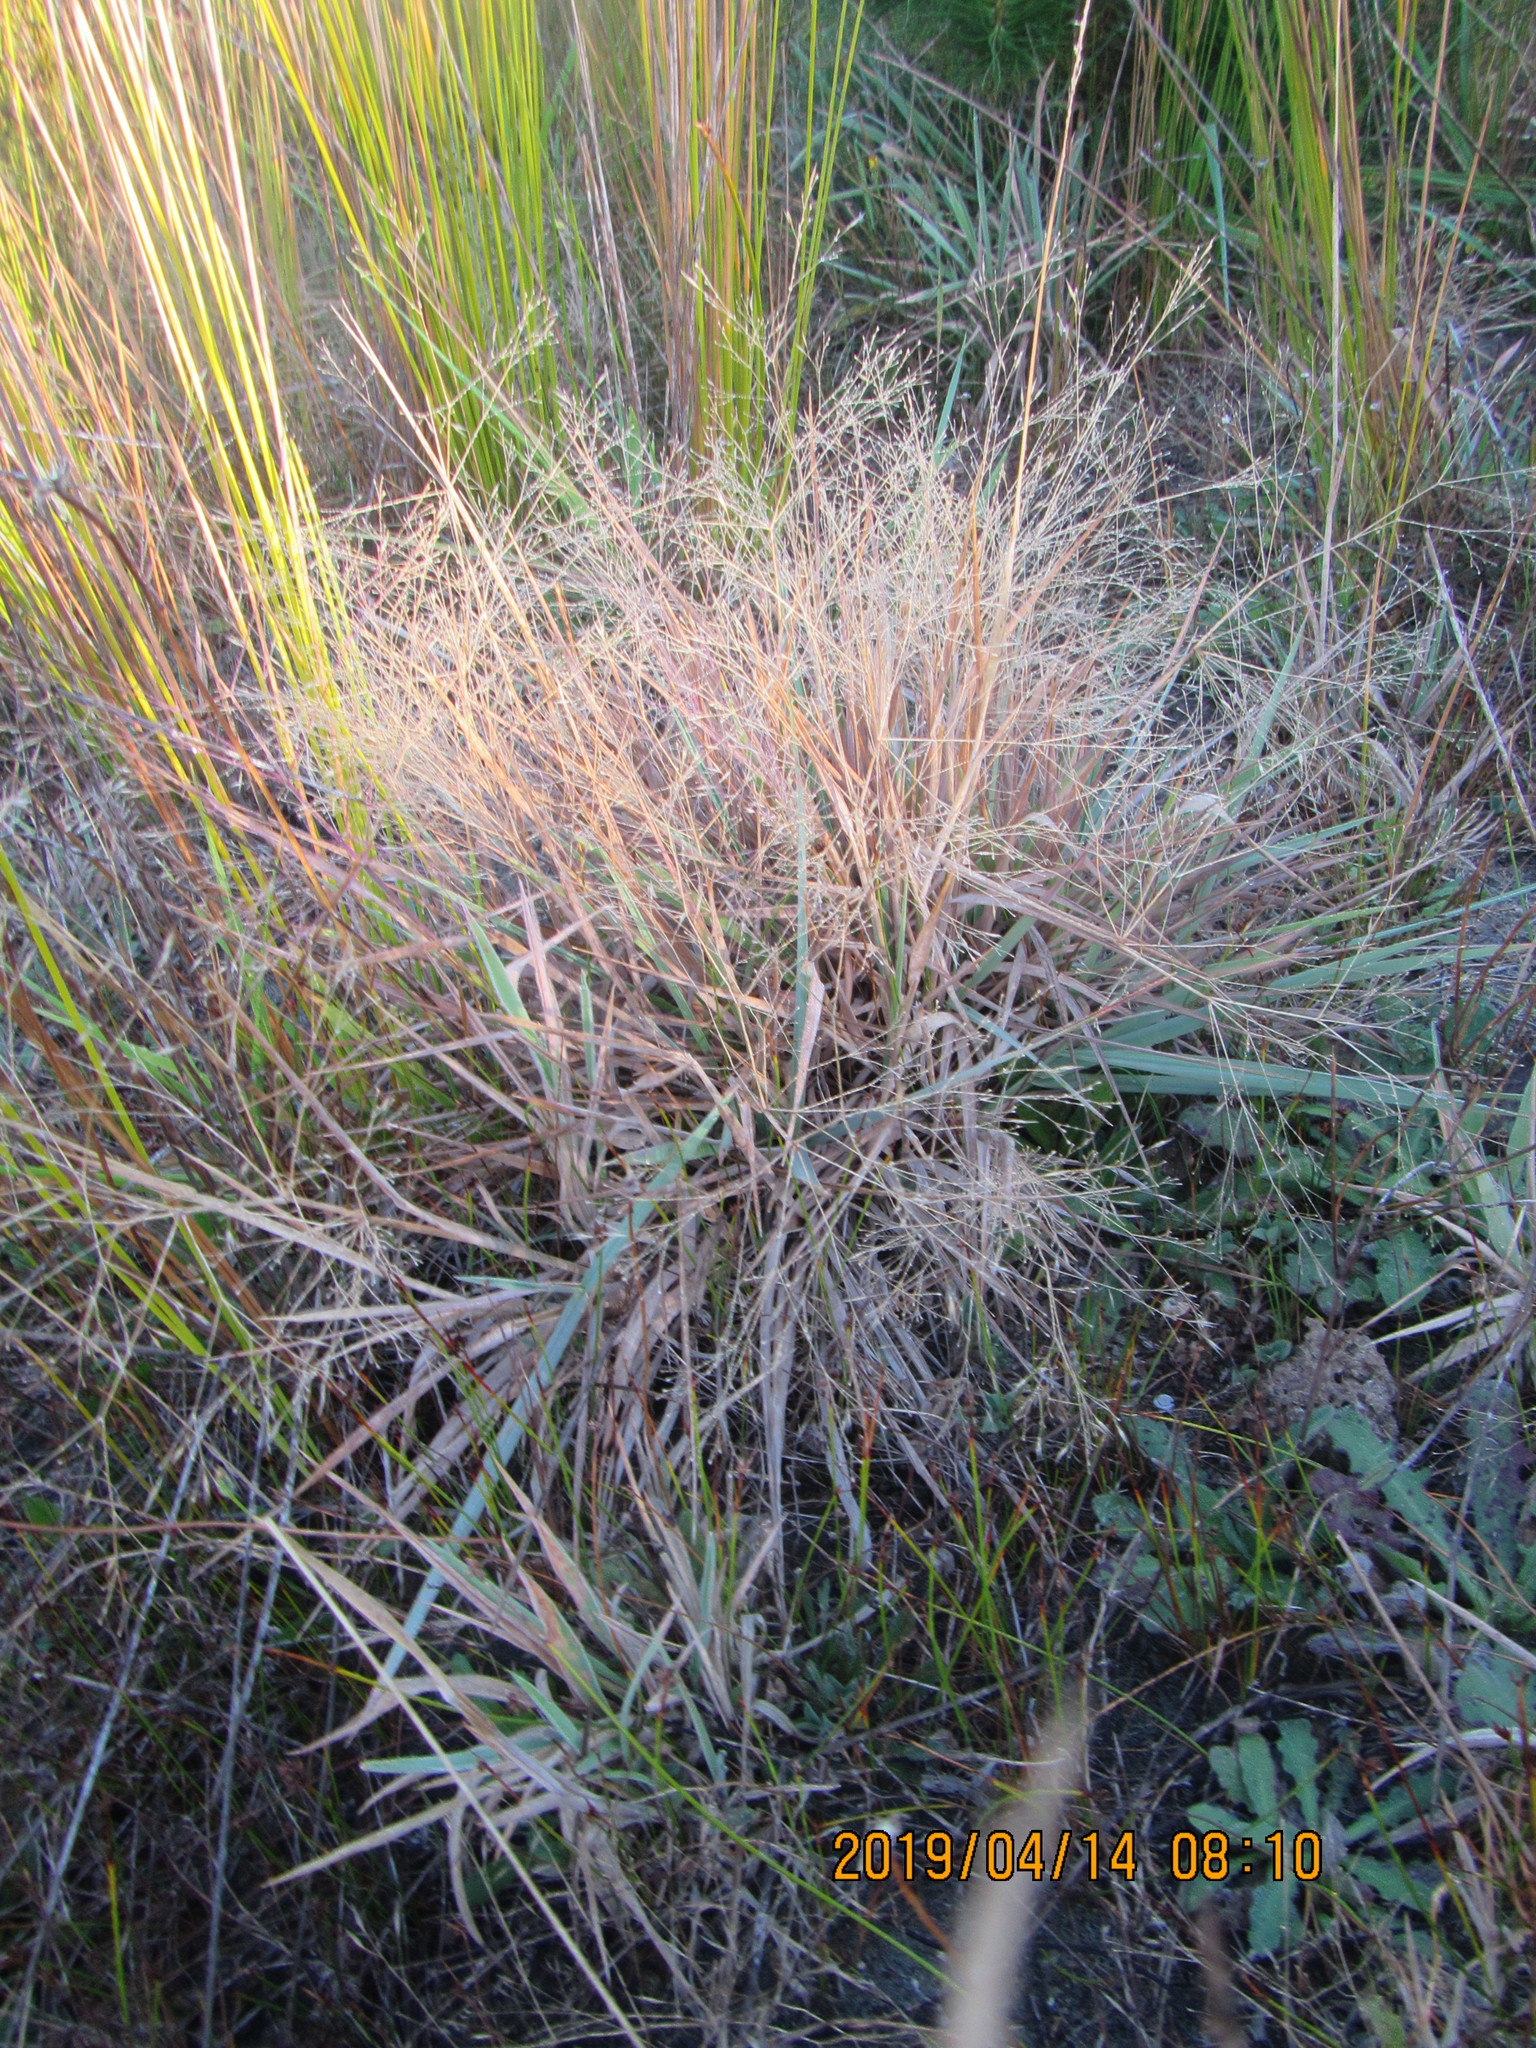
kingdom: Plantae
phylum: Tracheophyta
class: Liliopsida
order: Poales
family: Poaceae
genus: Lachnagrostis
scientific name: Lachnagrostis billardierei
